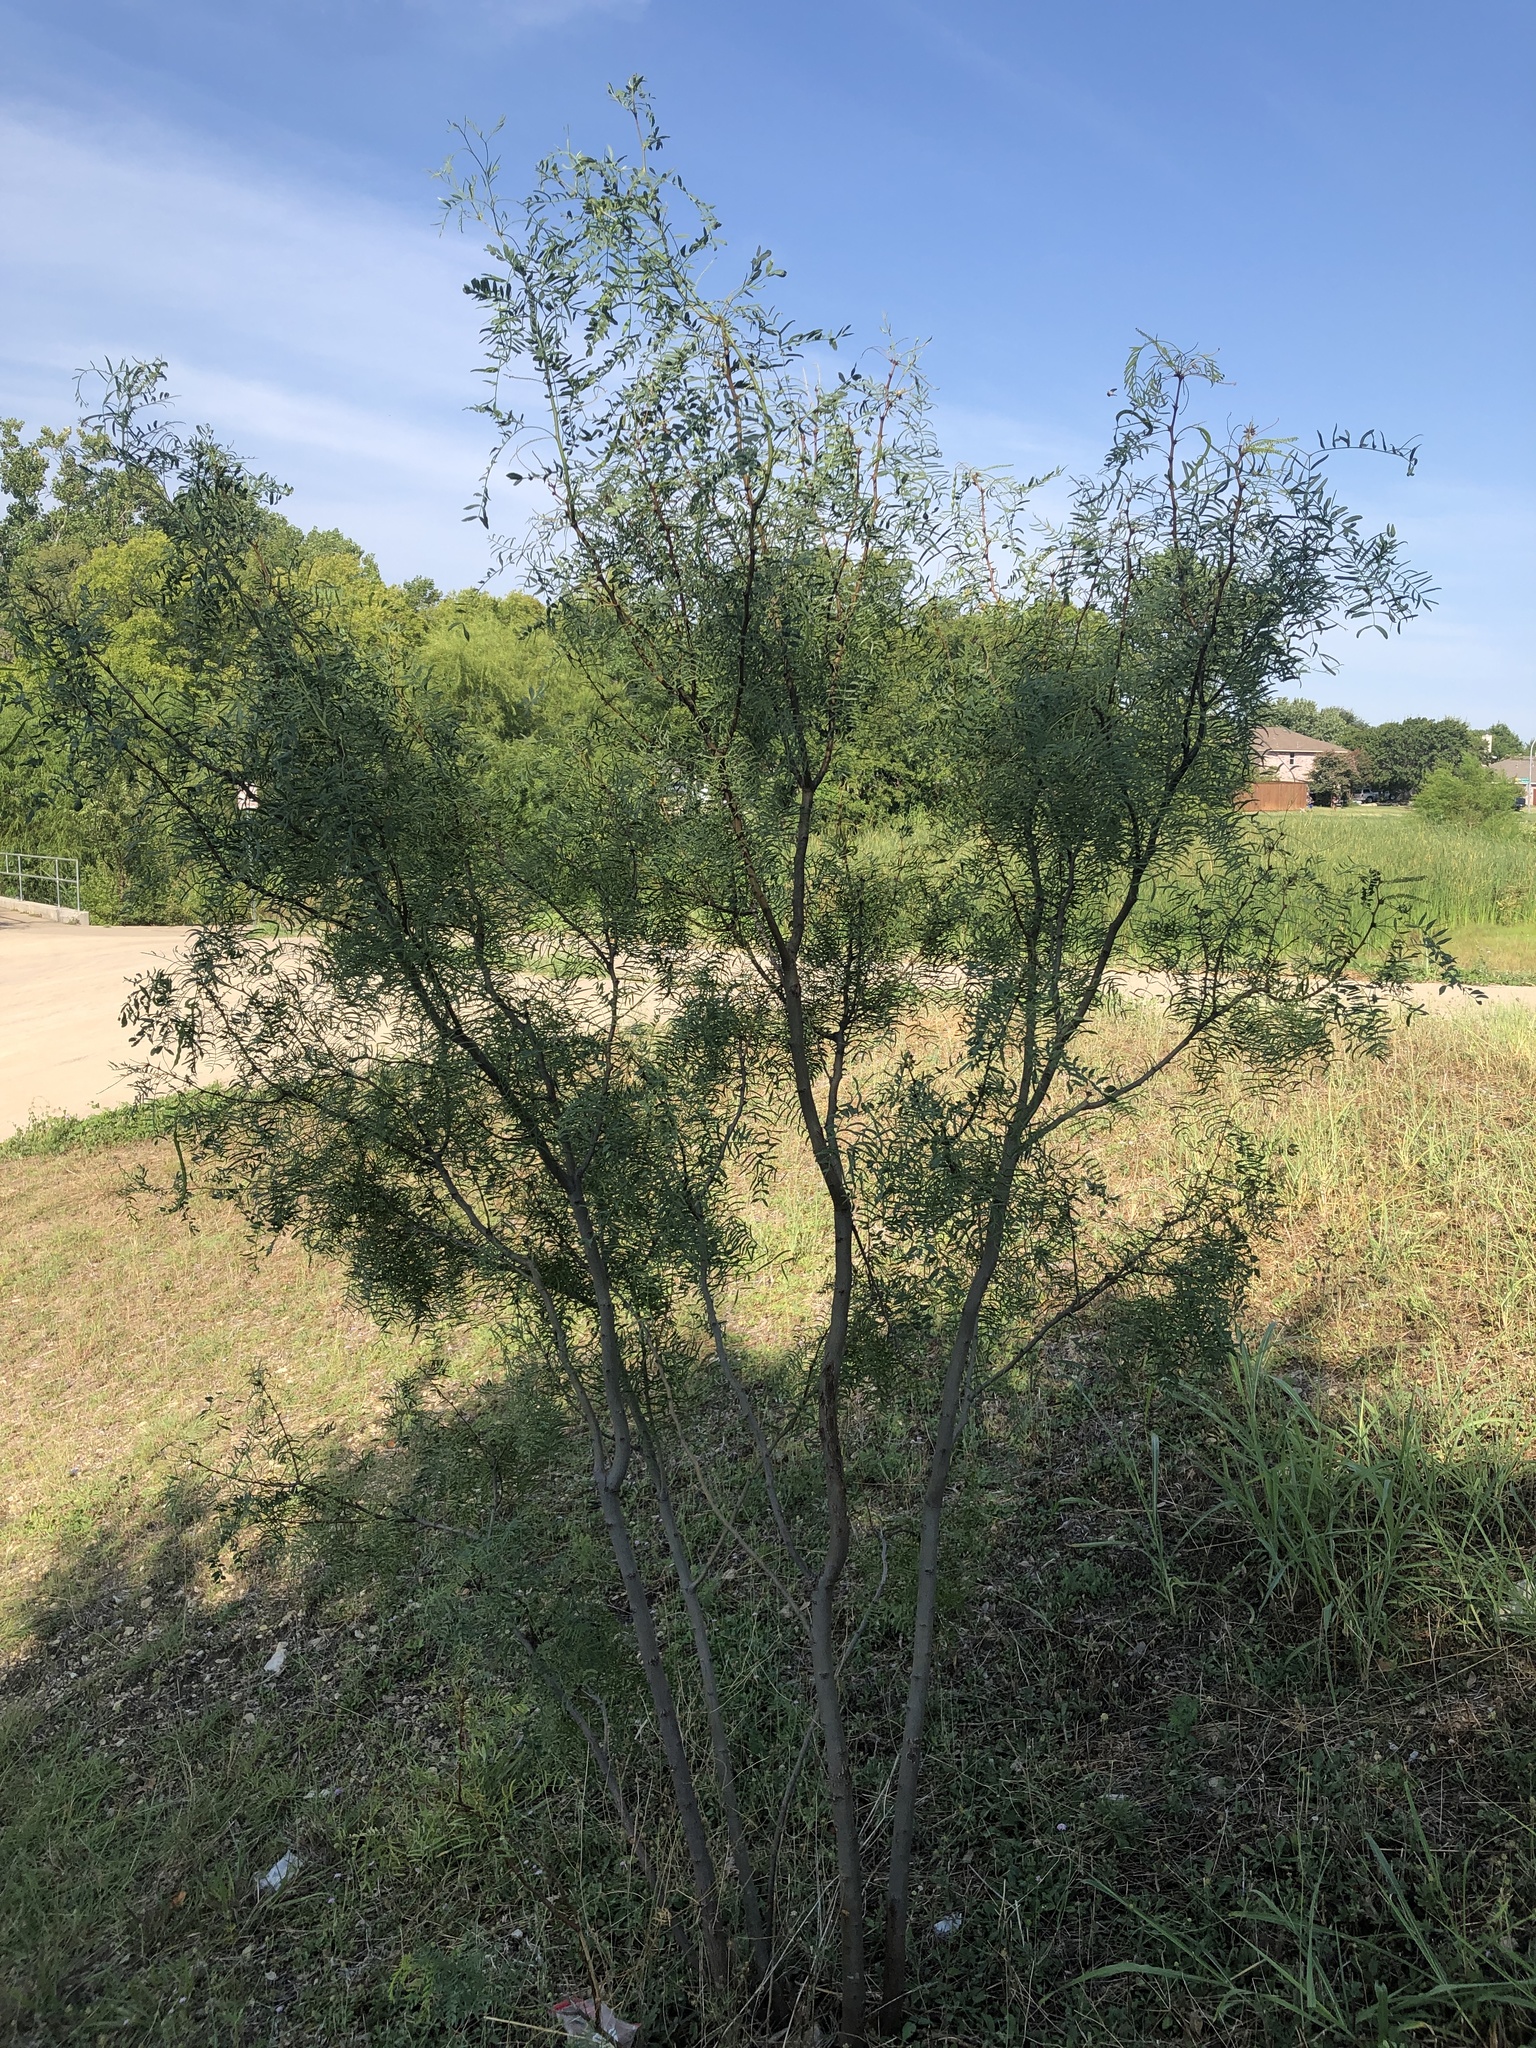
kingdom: Plantae
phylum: Tracheophyta
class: Magnoliopsida
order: Fabales
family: Fabaceae
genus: Prosopis
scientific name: Prosopis glandulosa
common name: Honey mesquite
